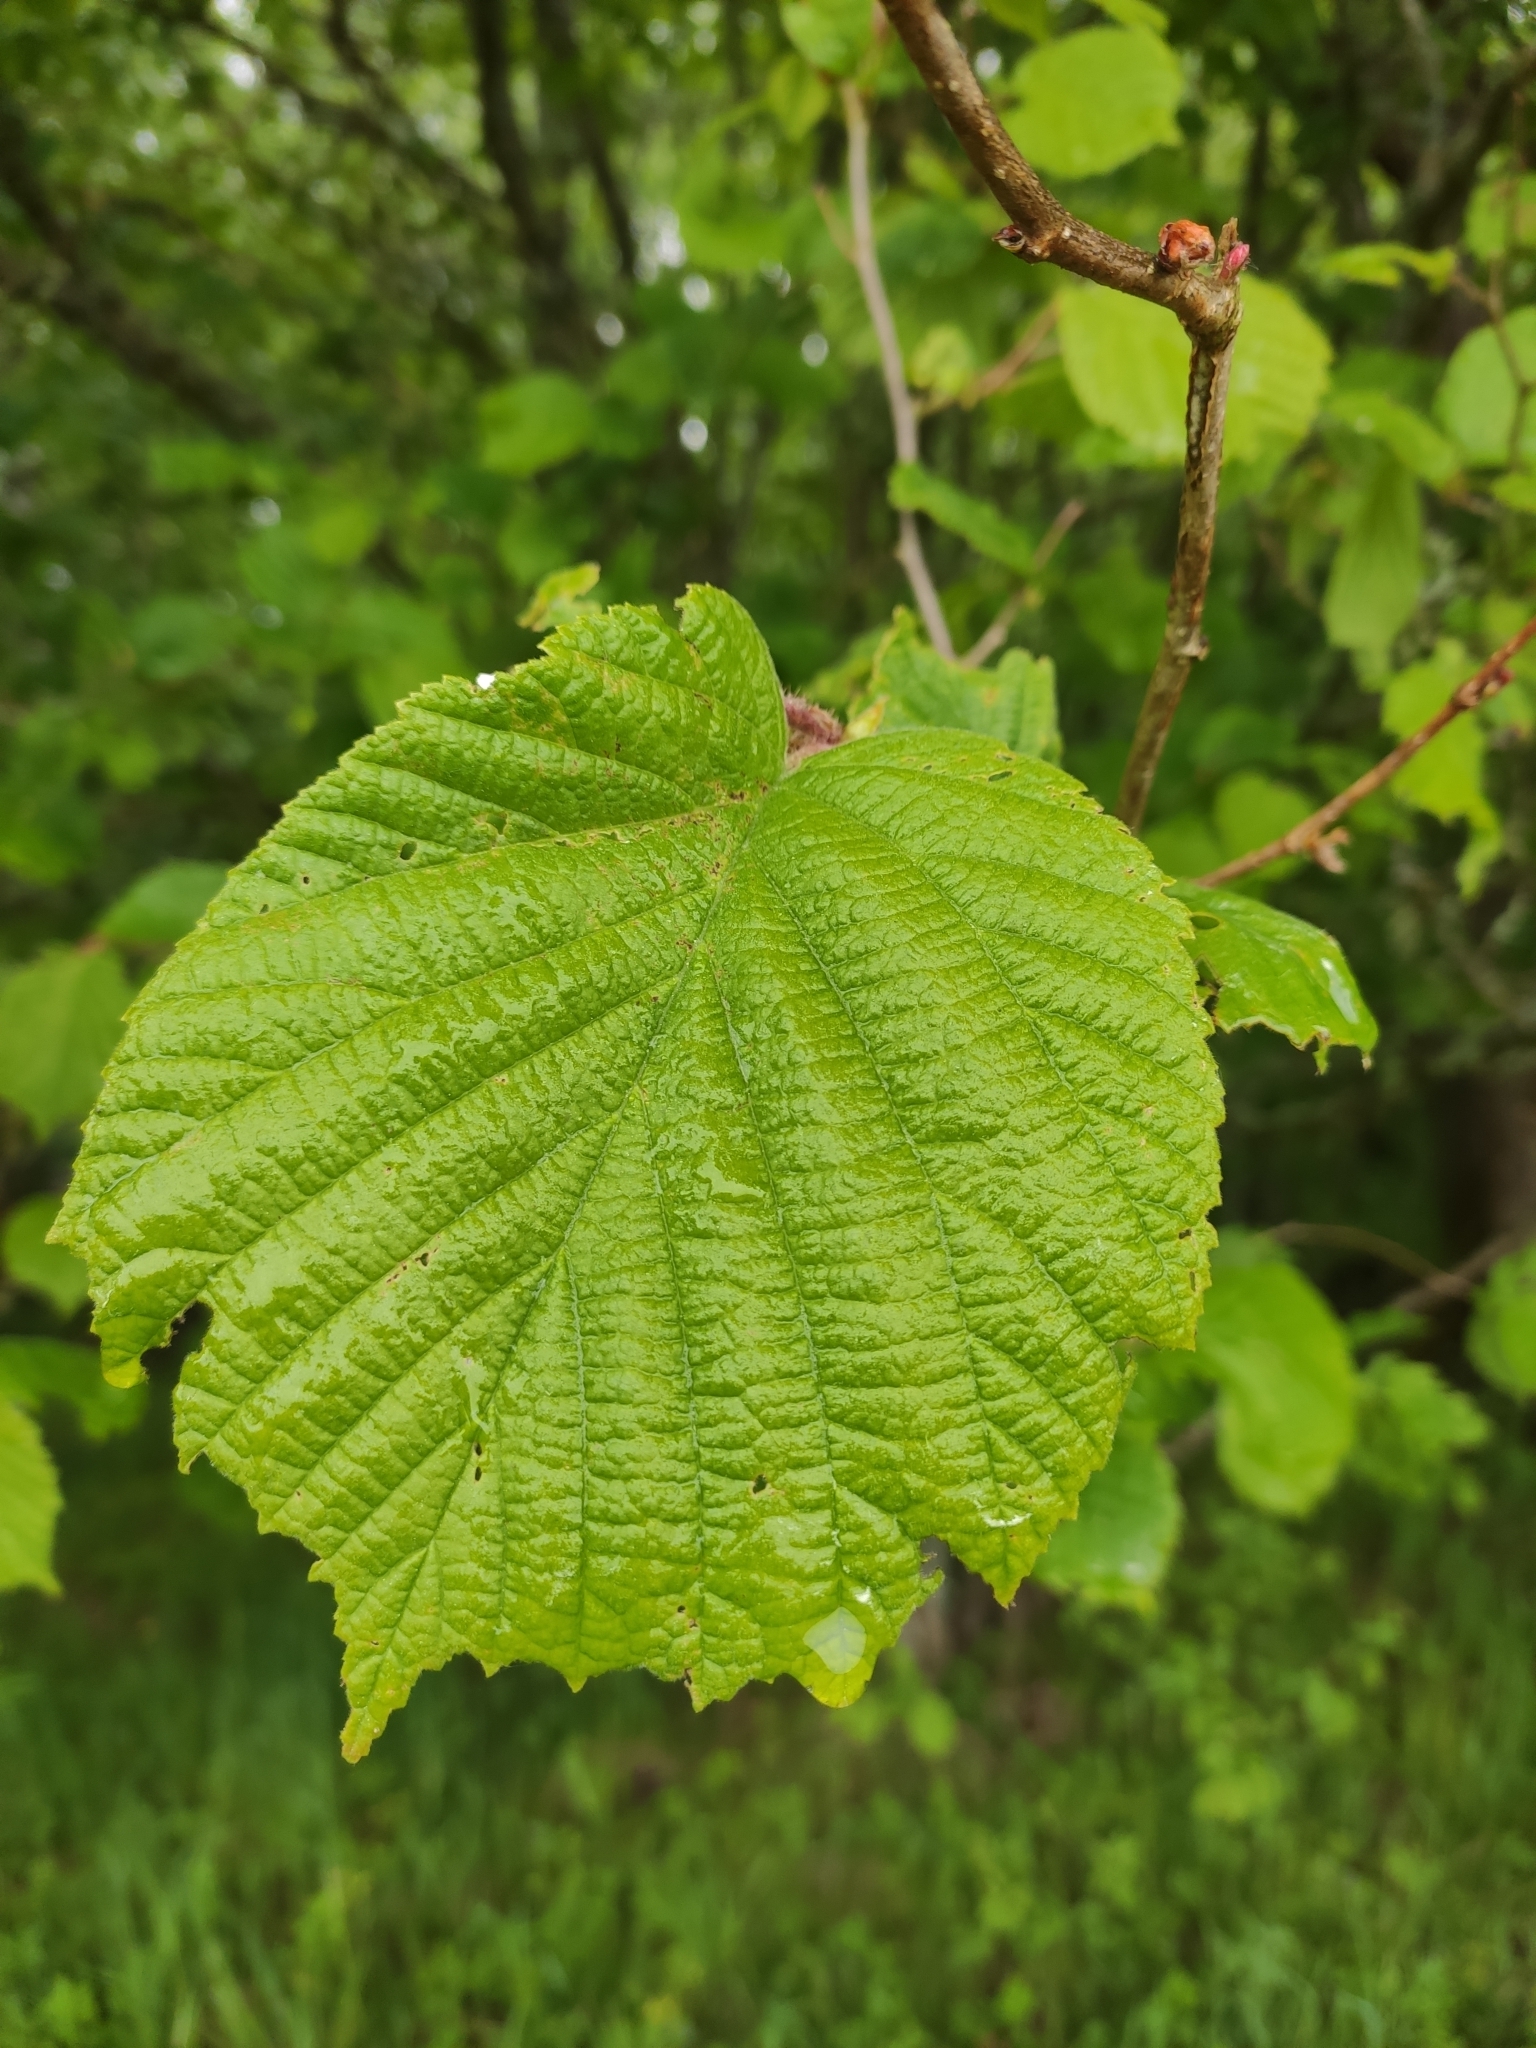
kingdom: Plantae
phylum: Tracheophyta
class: Magnoliopsida
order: Fagales
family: Betulaceae
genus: Corylus
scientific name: Corylus avellana
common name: European hazel
